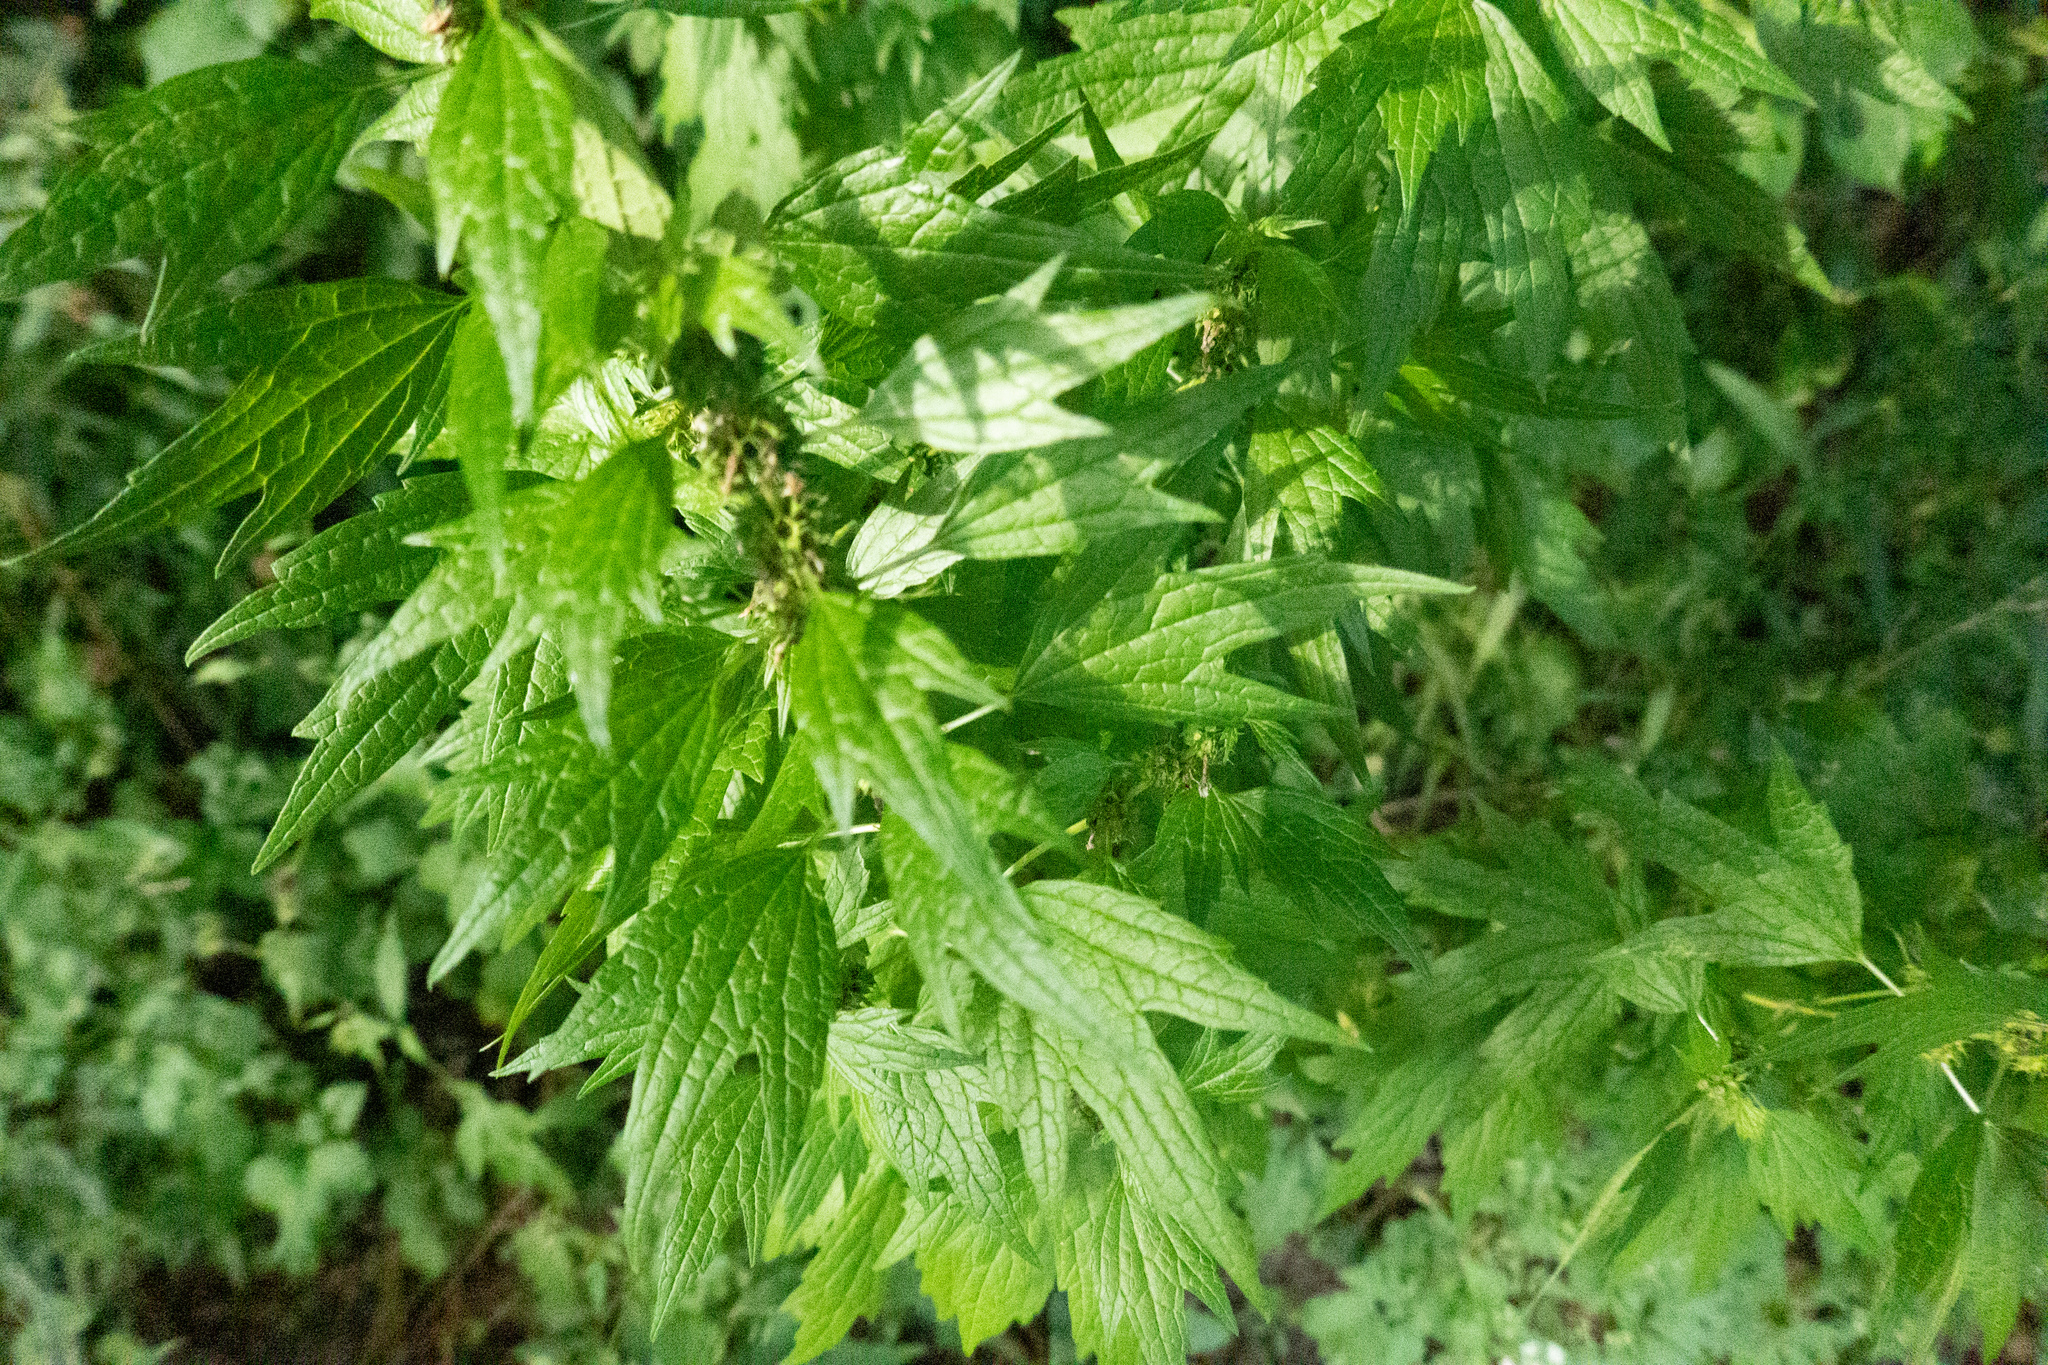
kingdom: Plantae
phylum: Tracheophyta
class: Magnoliopsida
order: Lamiales
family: Lamiaceae
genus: Leonurus
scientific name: Leonurus cardiaca
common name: Motherwort
